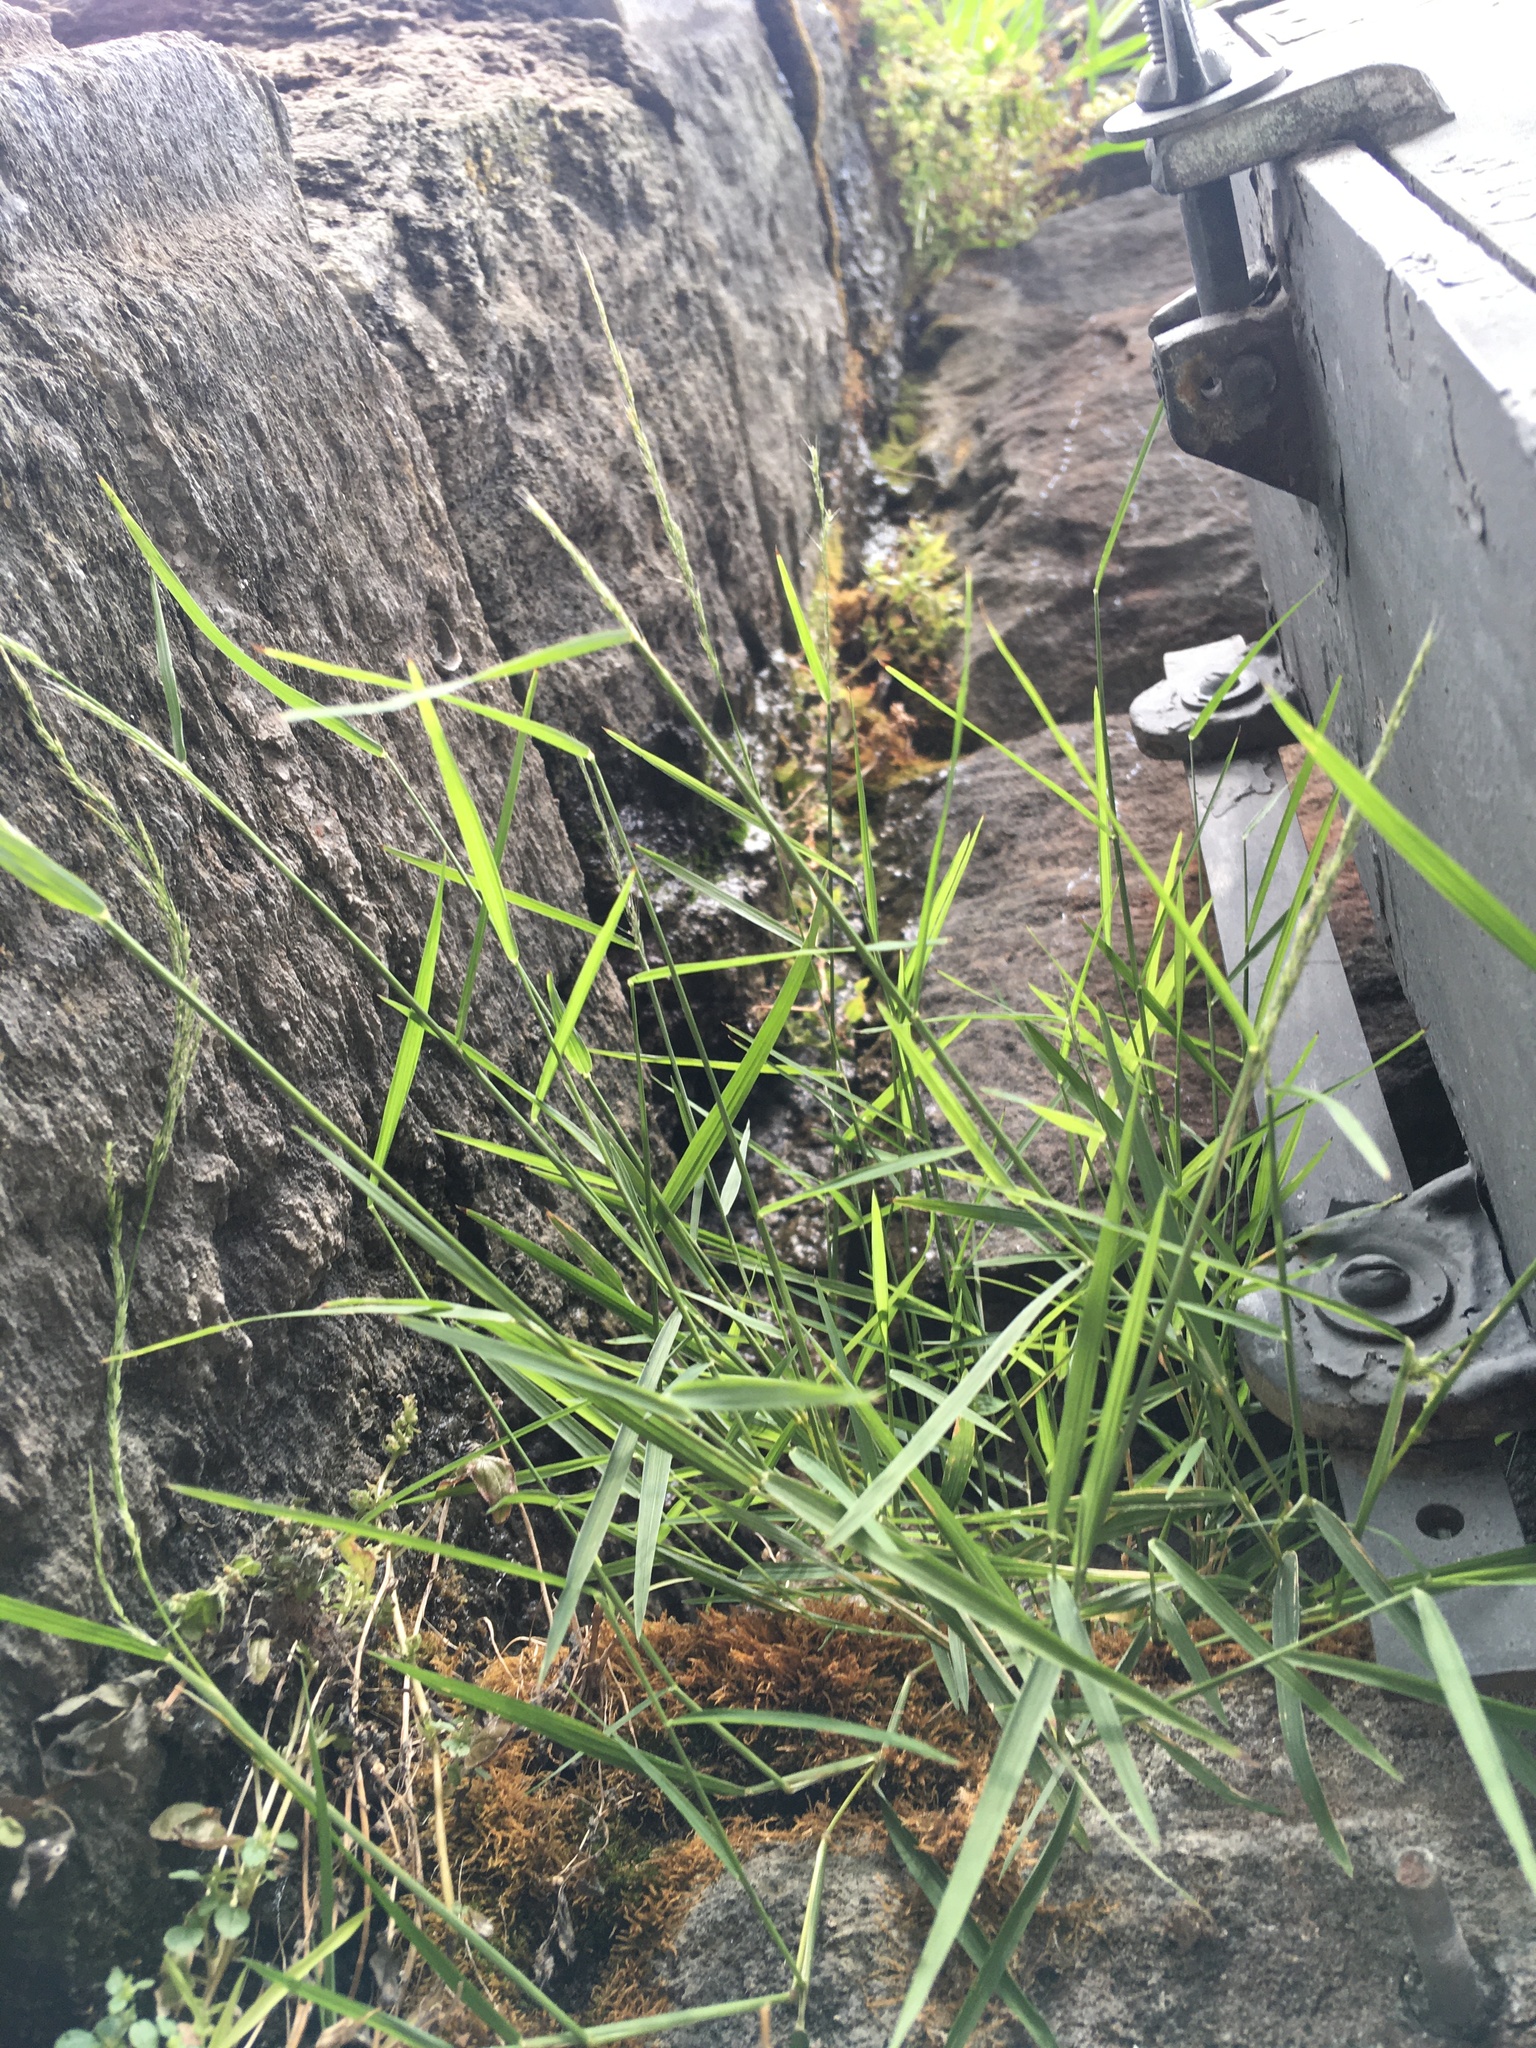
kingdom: Plantae
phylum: Tracheophyta
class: Liliopsida
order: Poales
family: Poaceae
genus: Muhlenbergia
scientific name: Muhlenbergia schreberi
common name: Nimblewill
